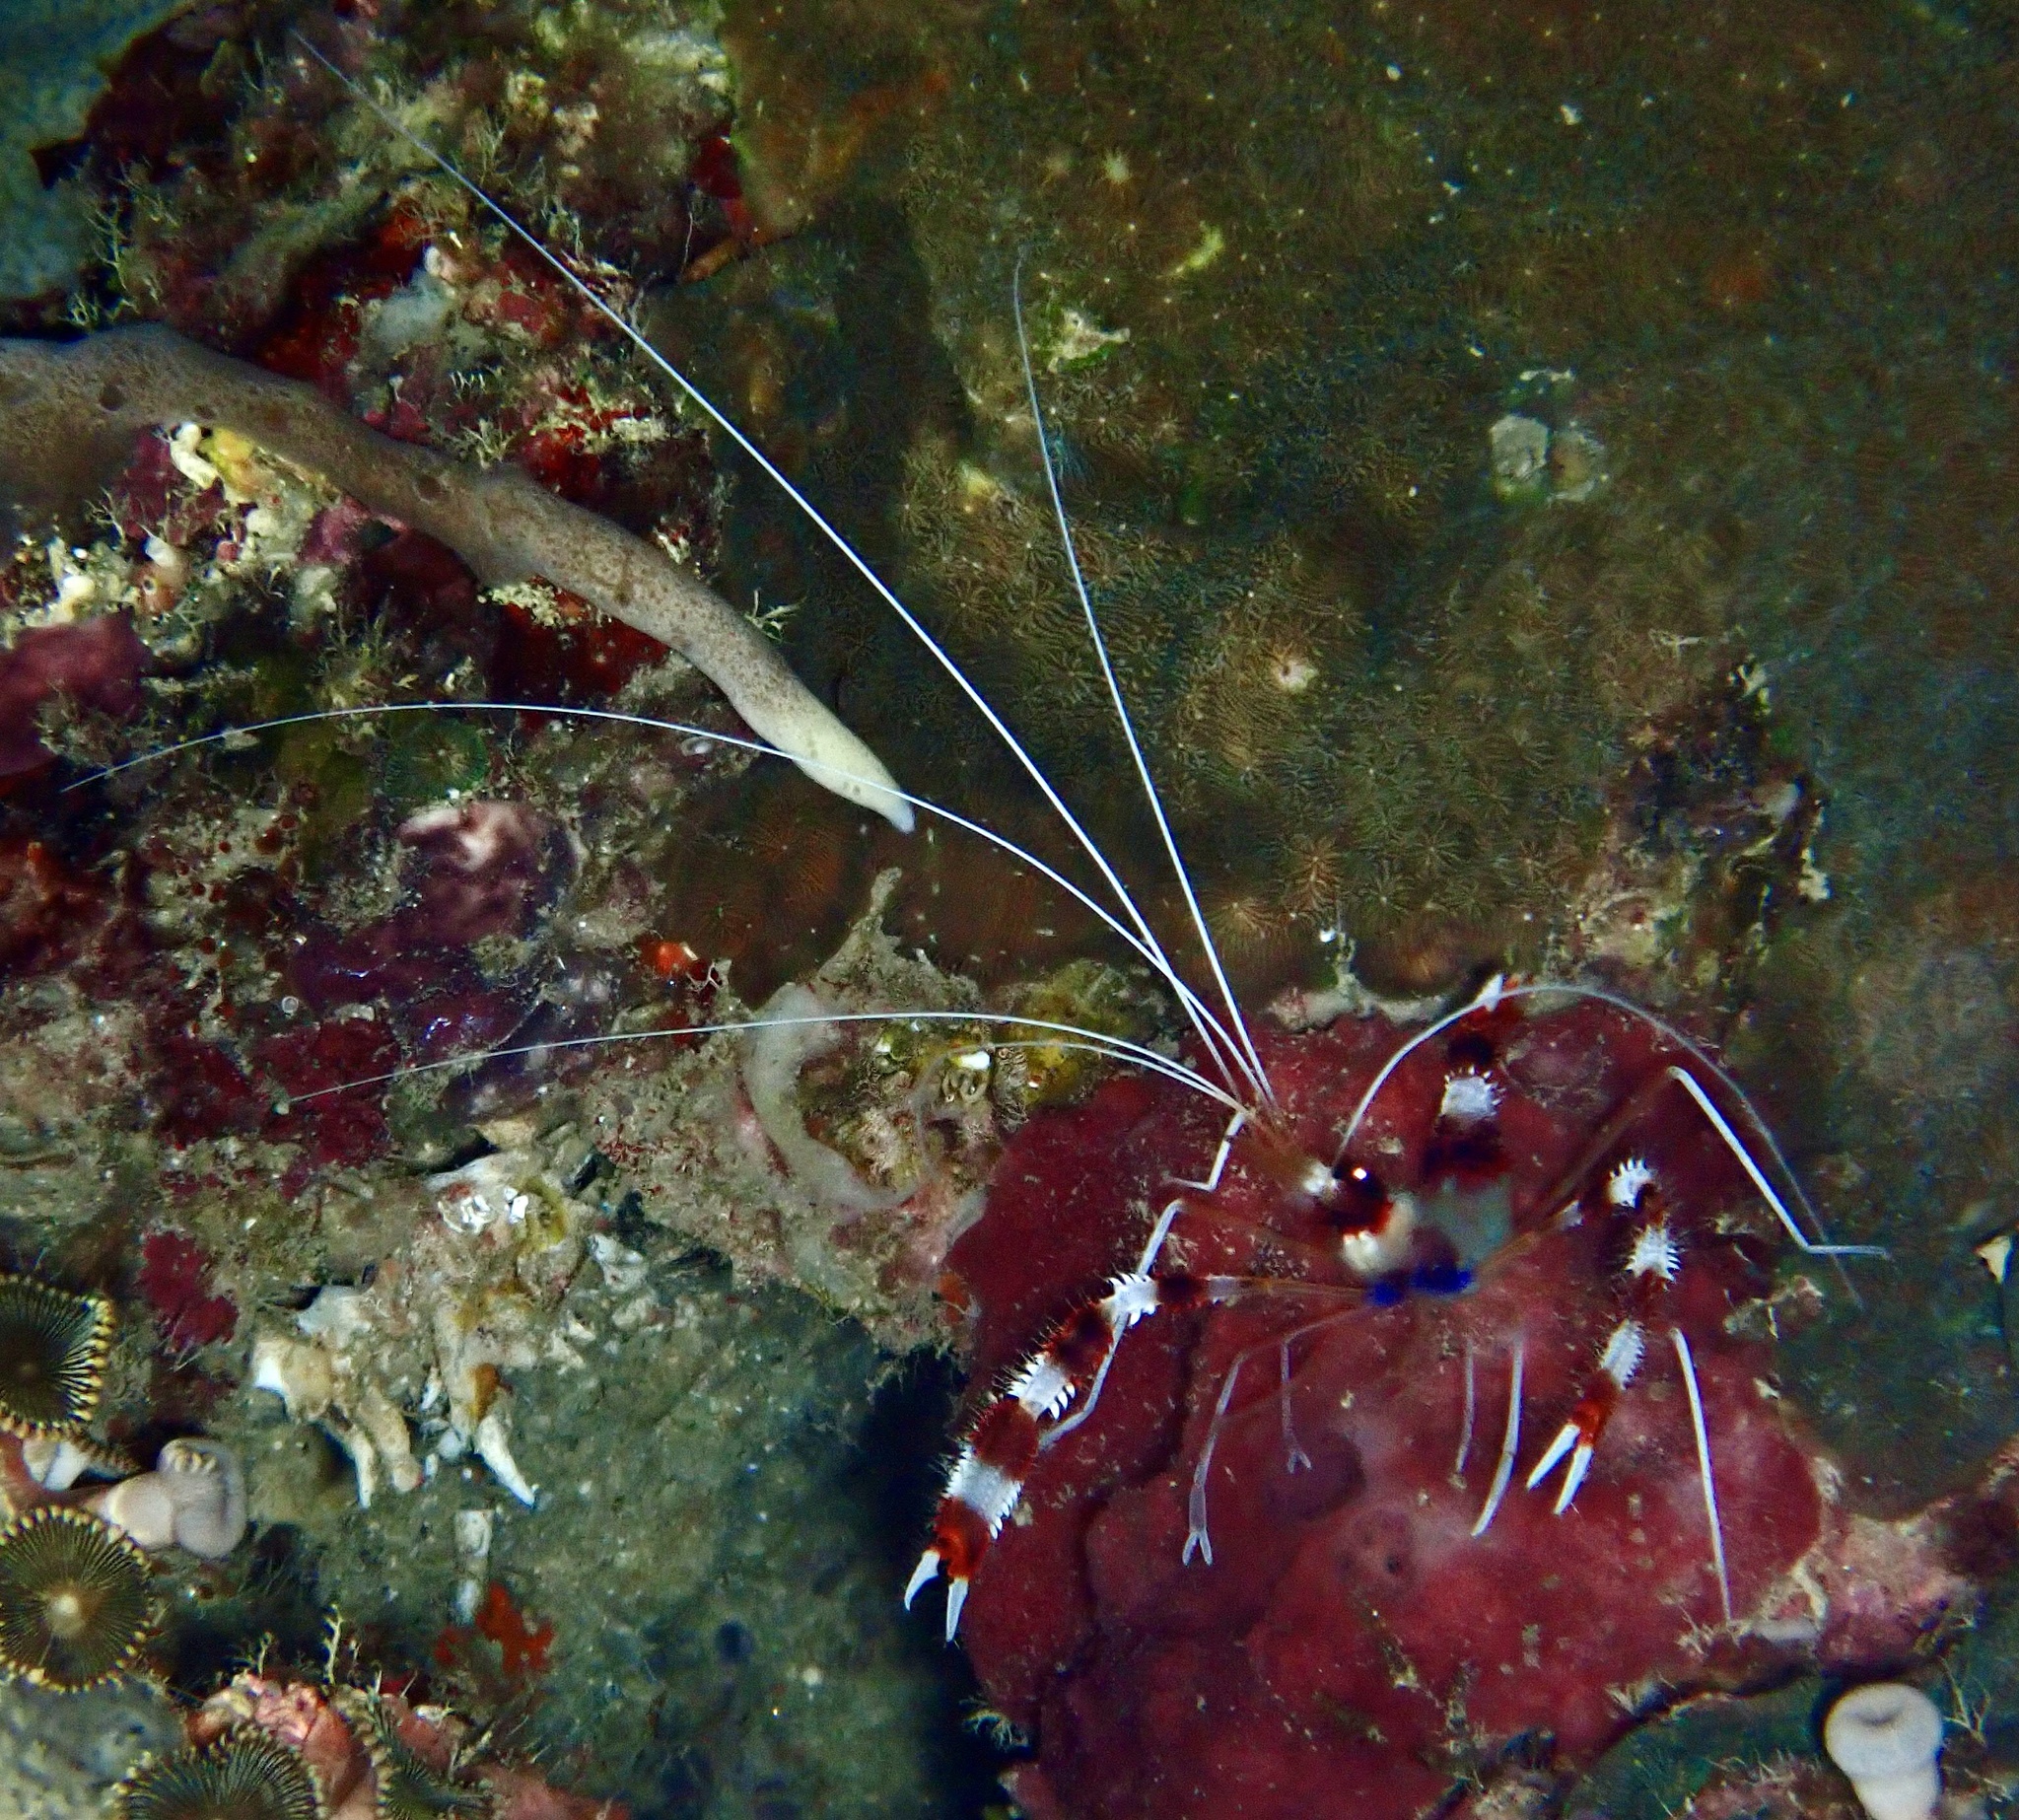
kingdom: Animalia
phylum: Arthropoda
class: Malacostraca
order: Decapoda
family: Stenopodidae
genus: Stenopus
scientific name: Stenopus hispidus
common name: Banded coral shrimp
